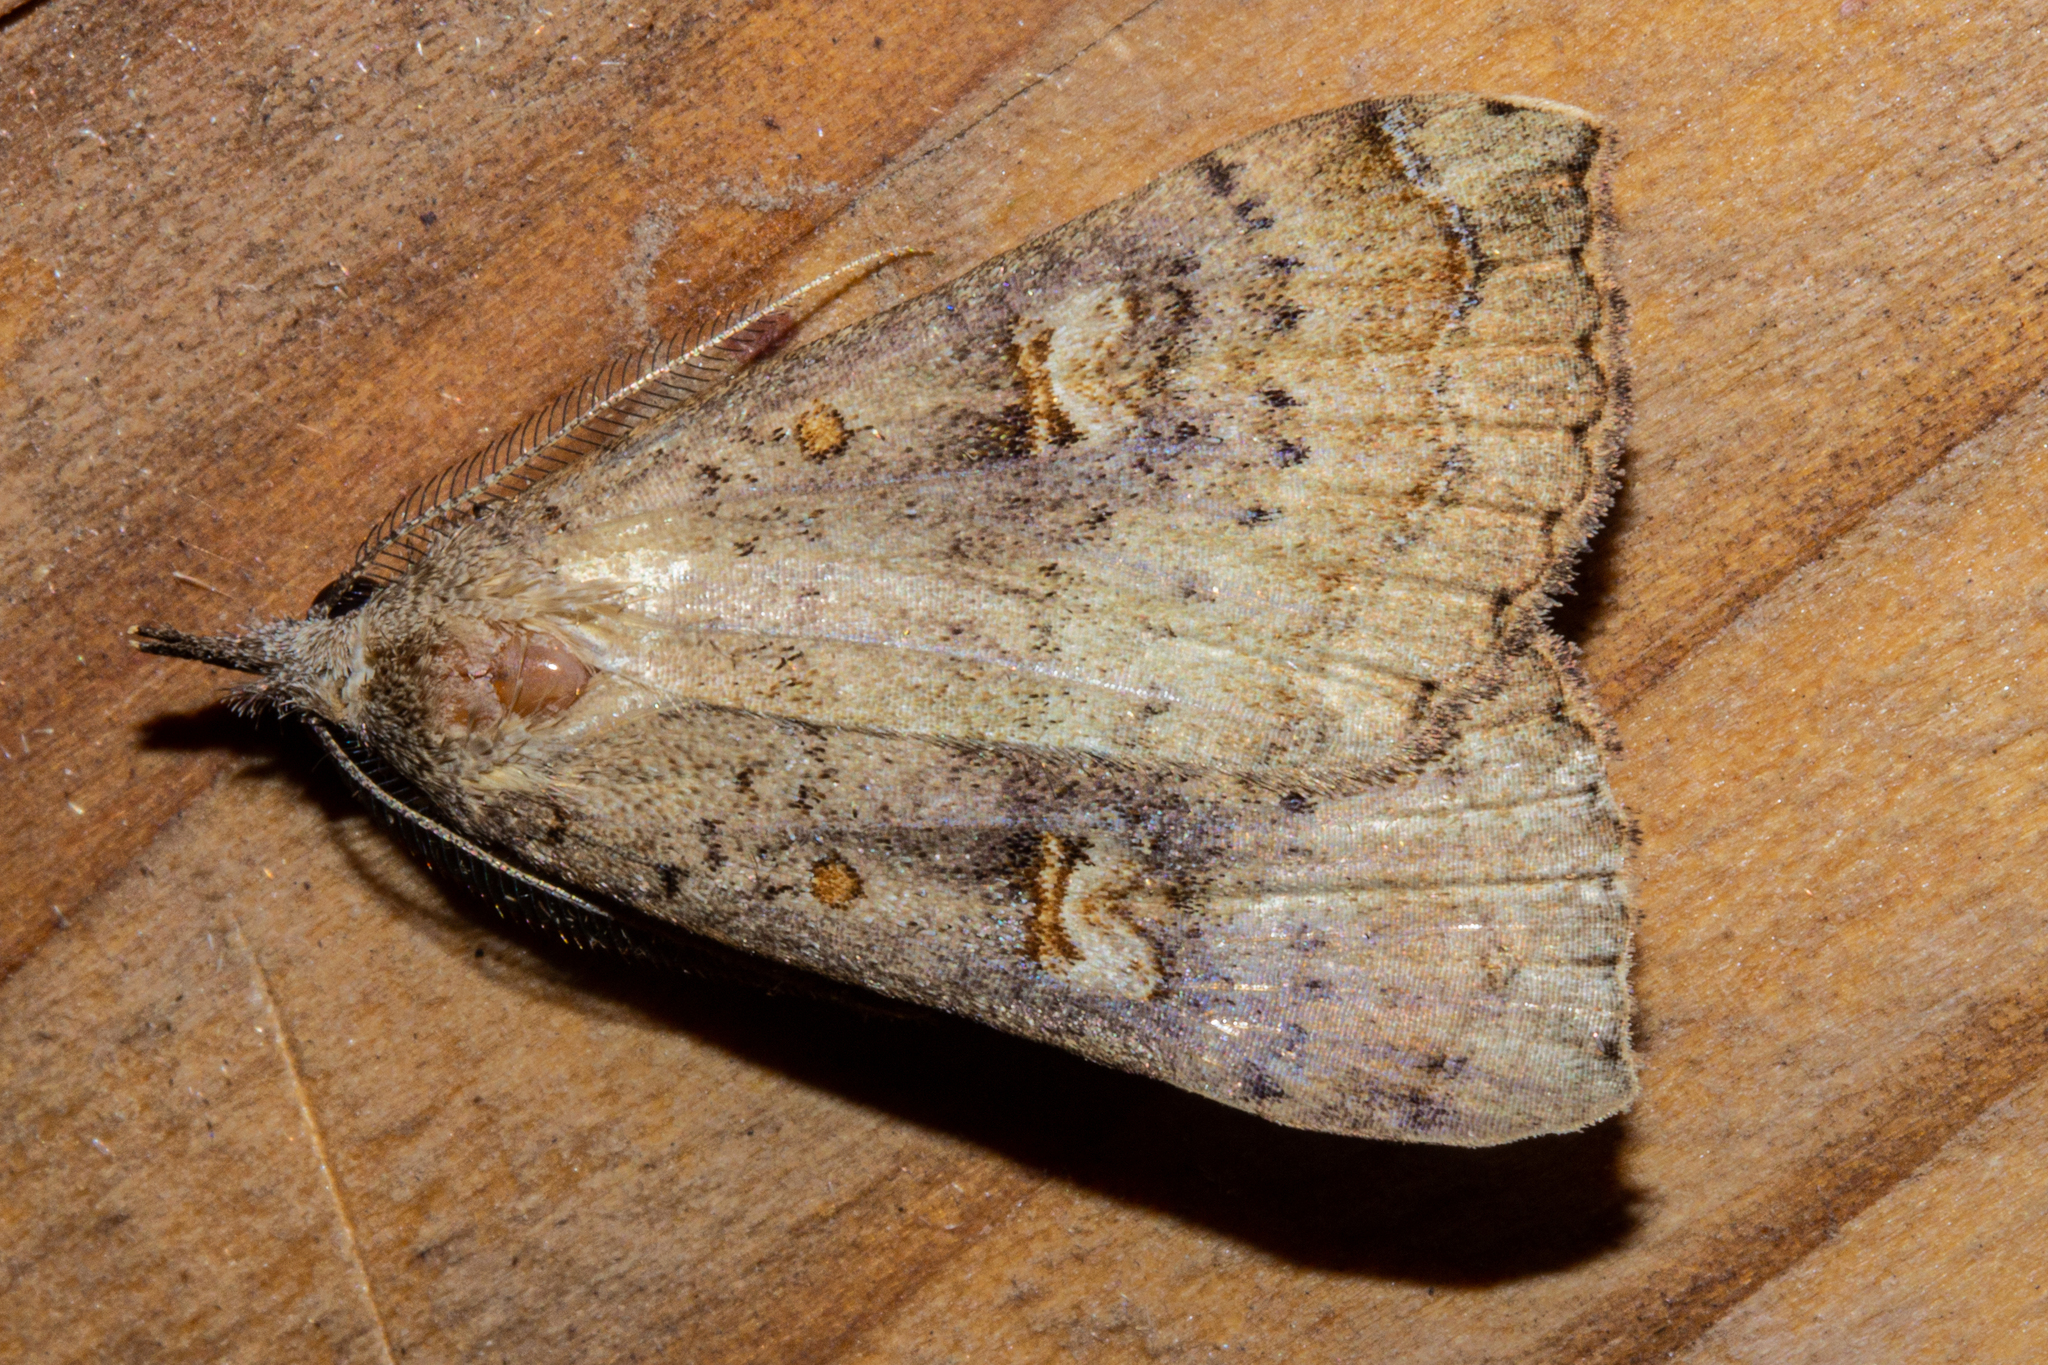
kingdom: Animalia
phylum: Arthropoda
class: Insecta
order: Lepidoptera
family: Erebidae
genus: Rhapsa
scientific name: Rhapsa scotosialis
